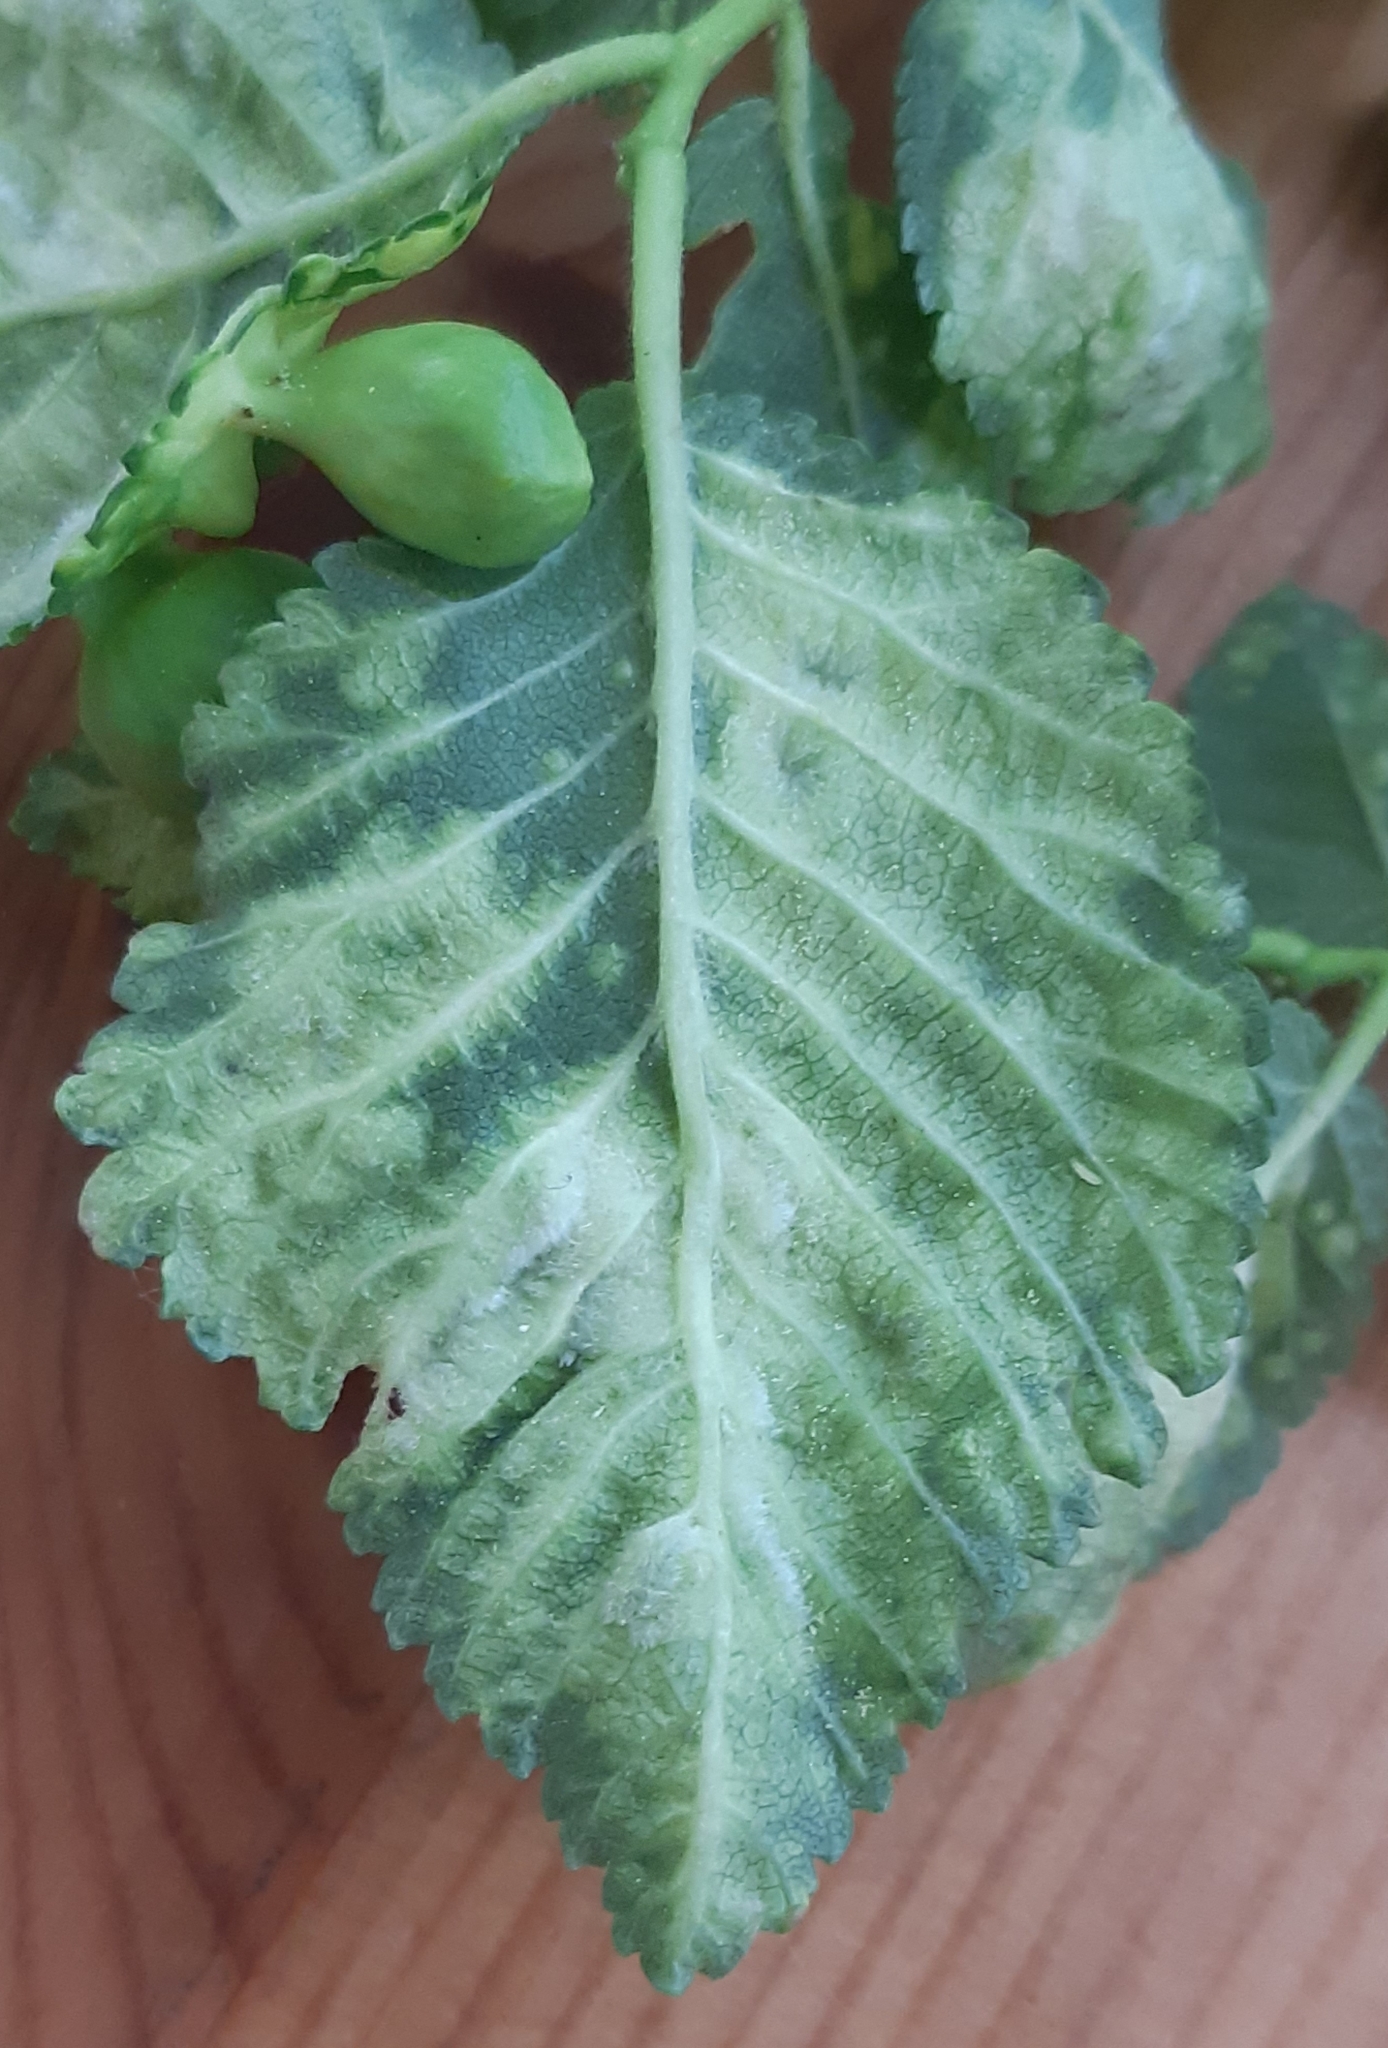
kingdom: Animalia
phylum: Arthropoda
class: Insecta
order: Hemiptera
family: Aphididae
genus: Tetraneura
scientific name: Tetraneura ulmi
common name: Aphid
